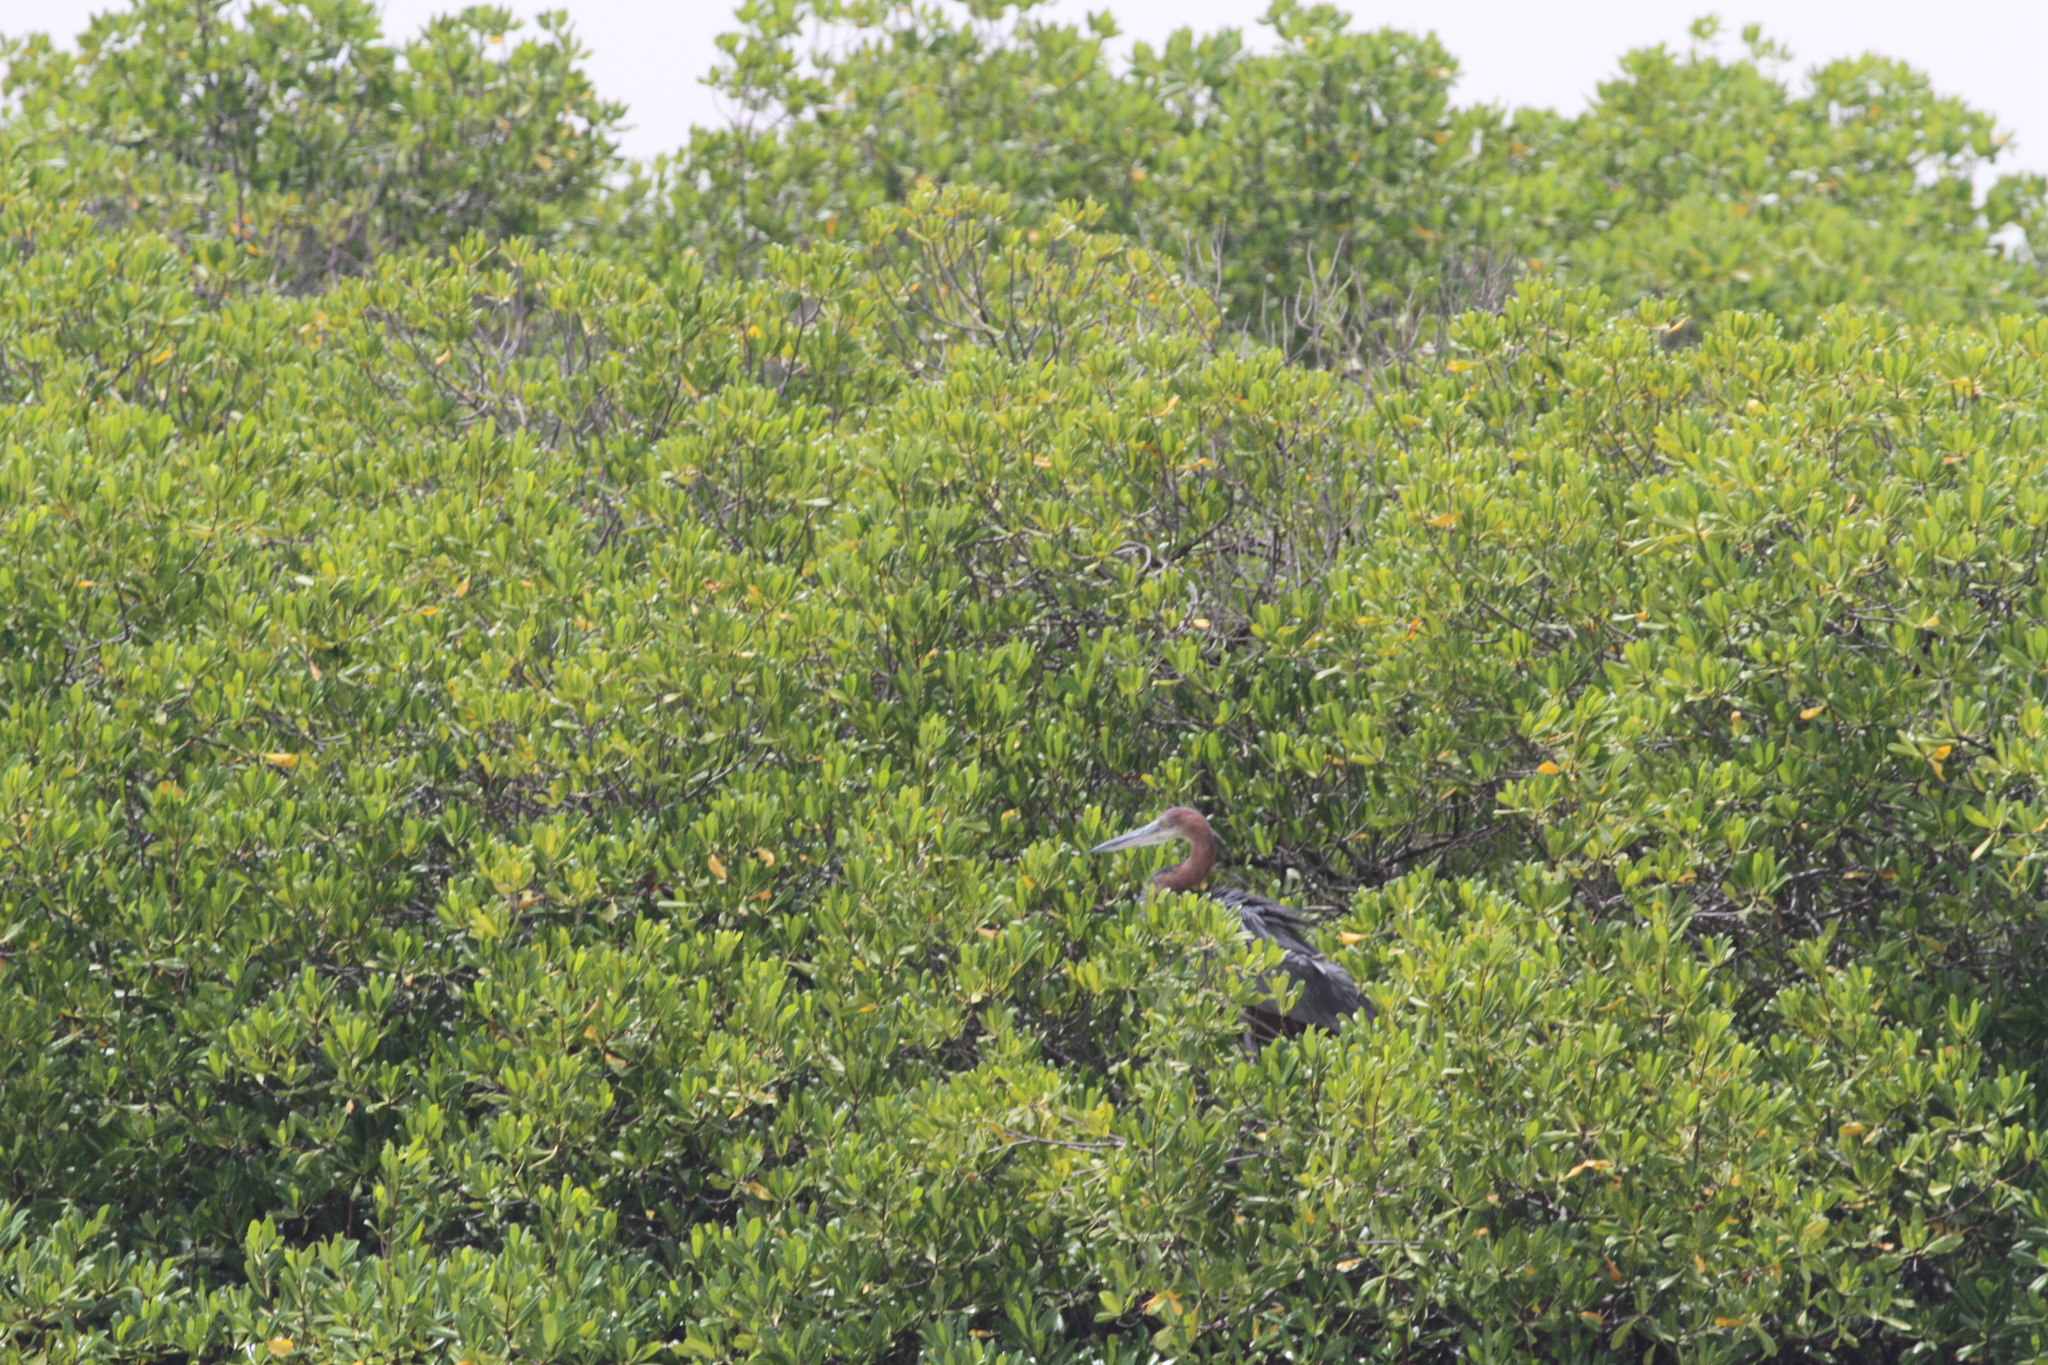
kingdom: Animalia
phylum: Chordata
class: Aves
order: Pelecaniformes
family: Ardeidae
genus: Ardea
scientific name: Ardea goliath
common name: Goliath heron
